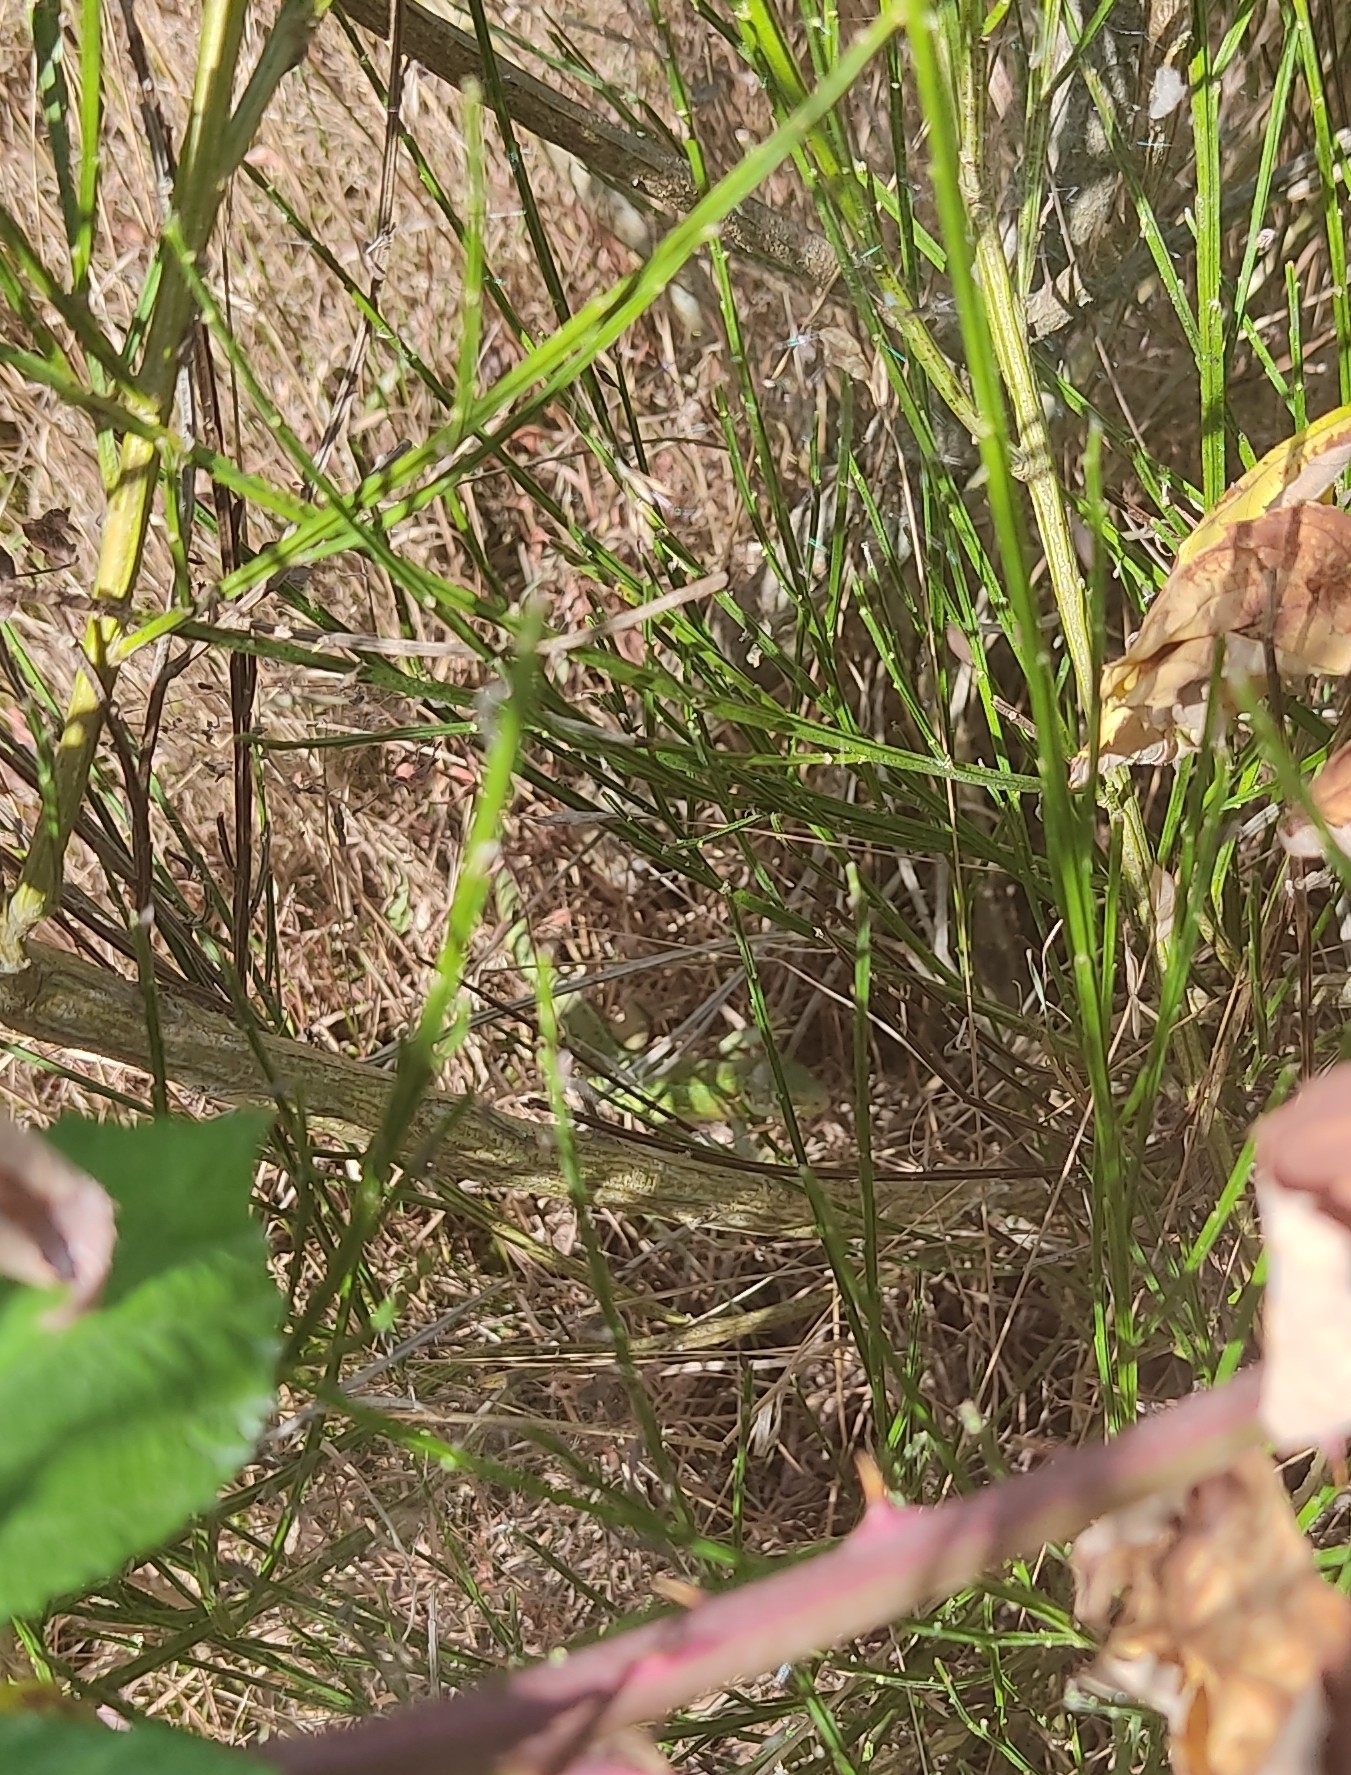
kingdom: Animalia
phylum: Chordata
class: Squamata
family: Lacertidae
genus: Lacerta
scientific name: Lacerta bilineata
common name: Western green lizard
